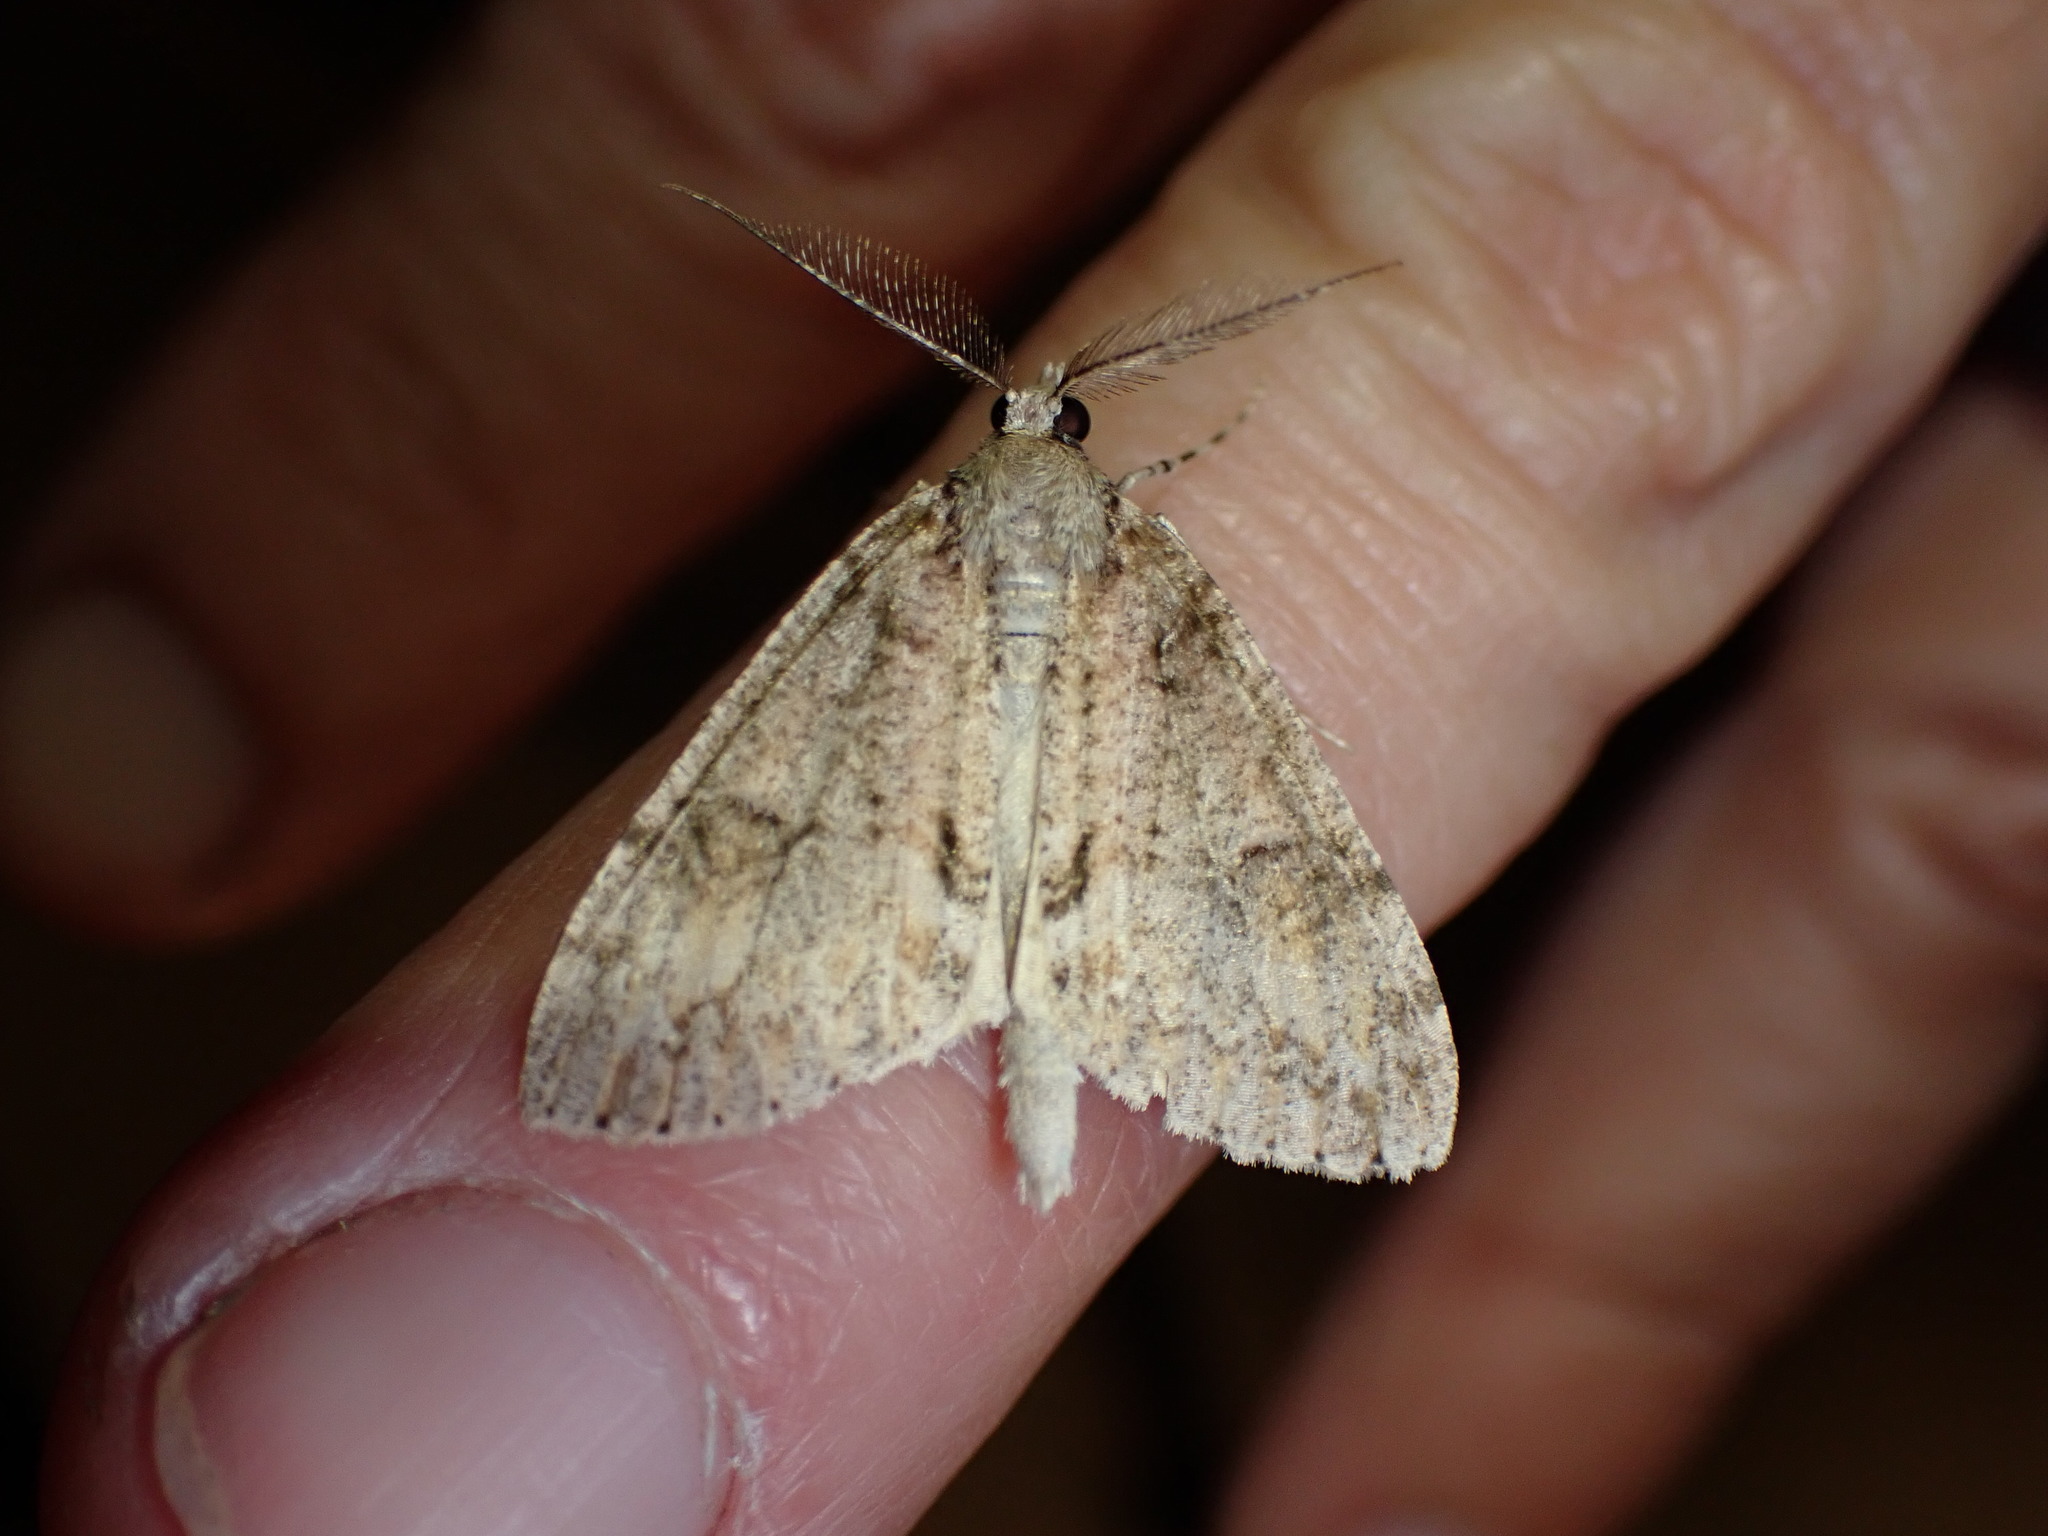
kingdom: Animalia
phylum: Arthropoda
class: Insecta
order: Lepidoptera
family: Geometridae
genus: Pseudocoremia
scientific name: Pseudocoremia suavis
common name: Common forest looper
